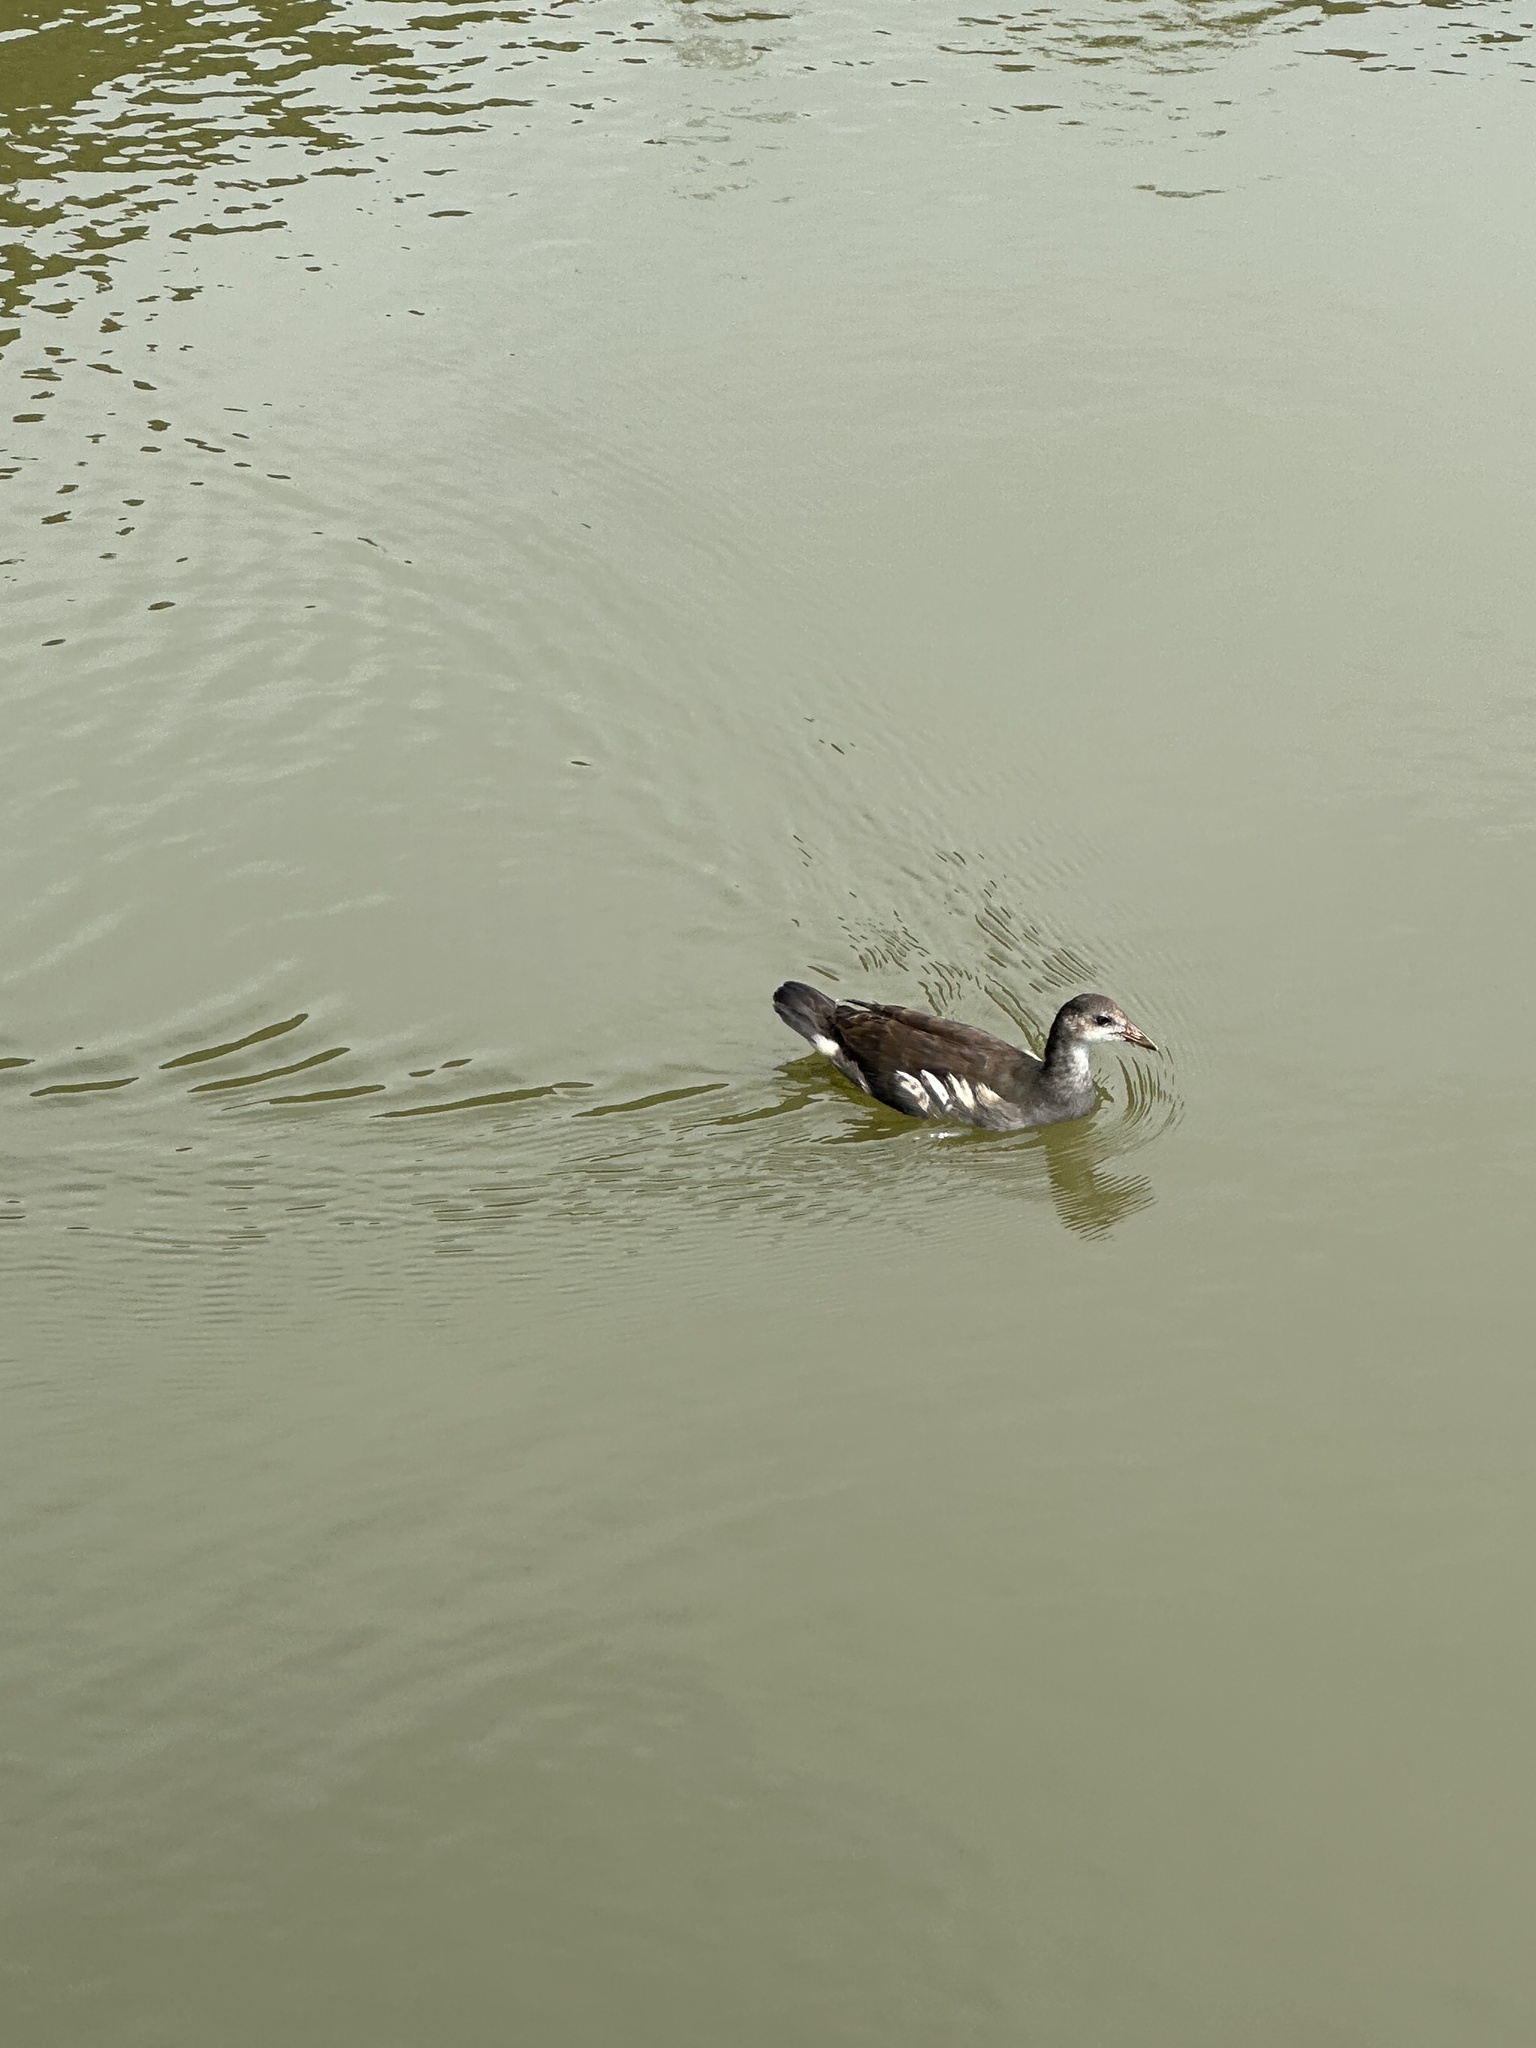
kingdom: Animalia
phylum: Chordata
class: Aves
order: Gruiformes
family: Rallidae
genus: Gallinula
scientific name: Gallinula chloropus
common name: Common moorhen
